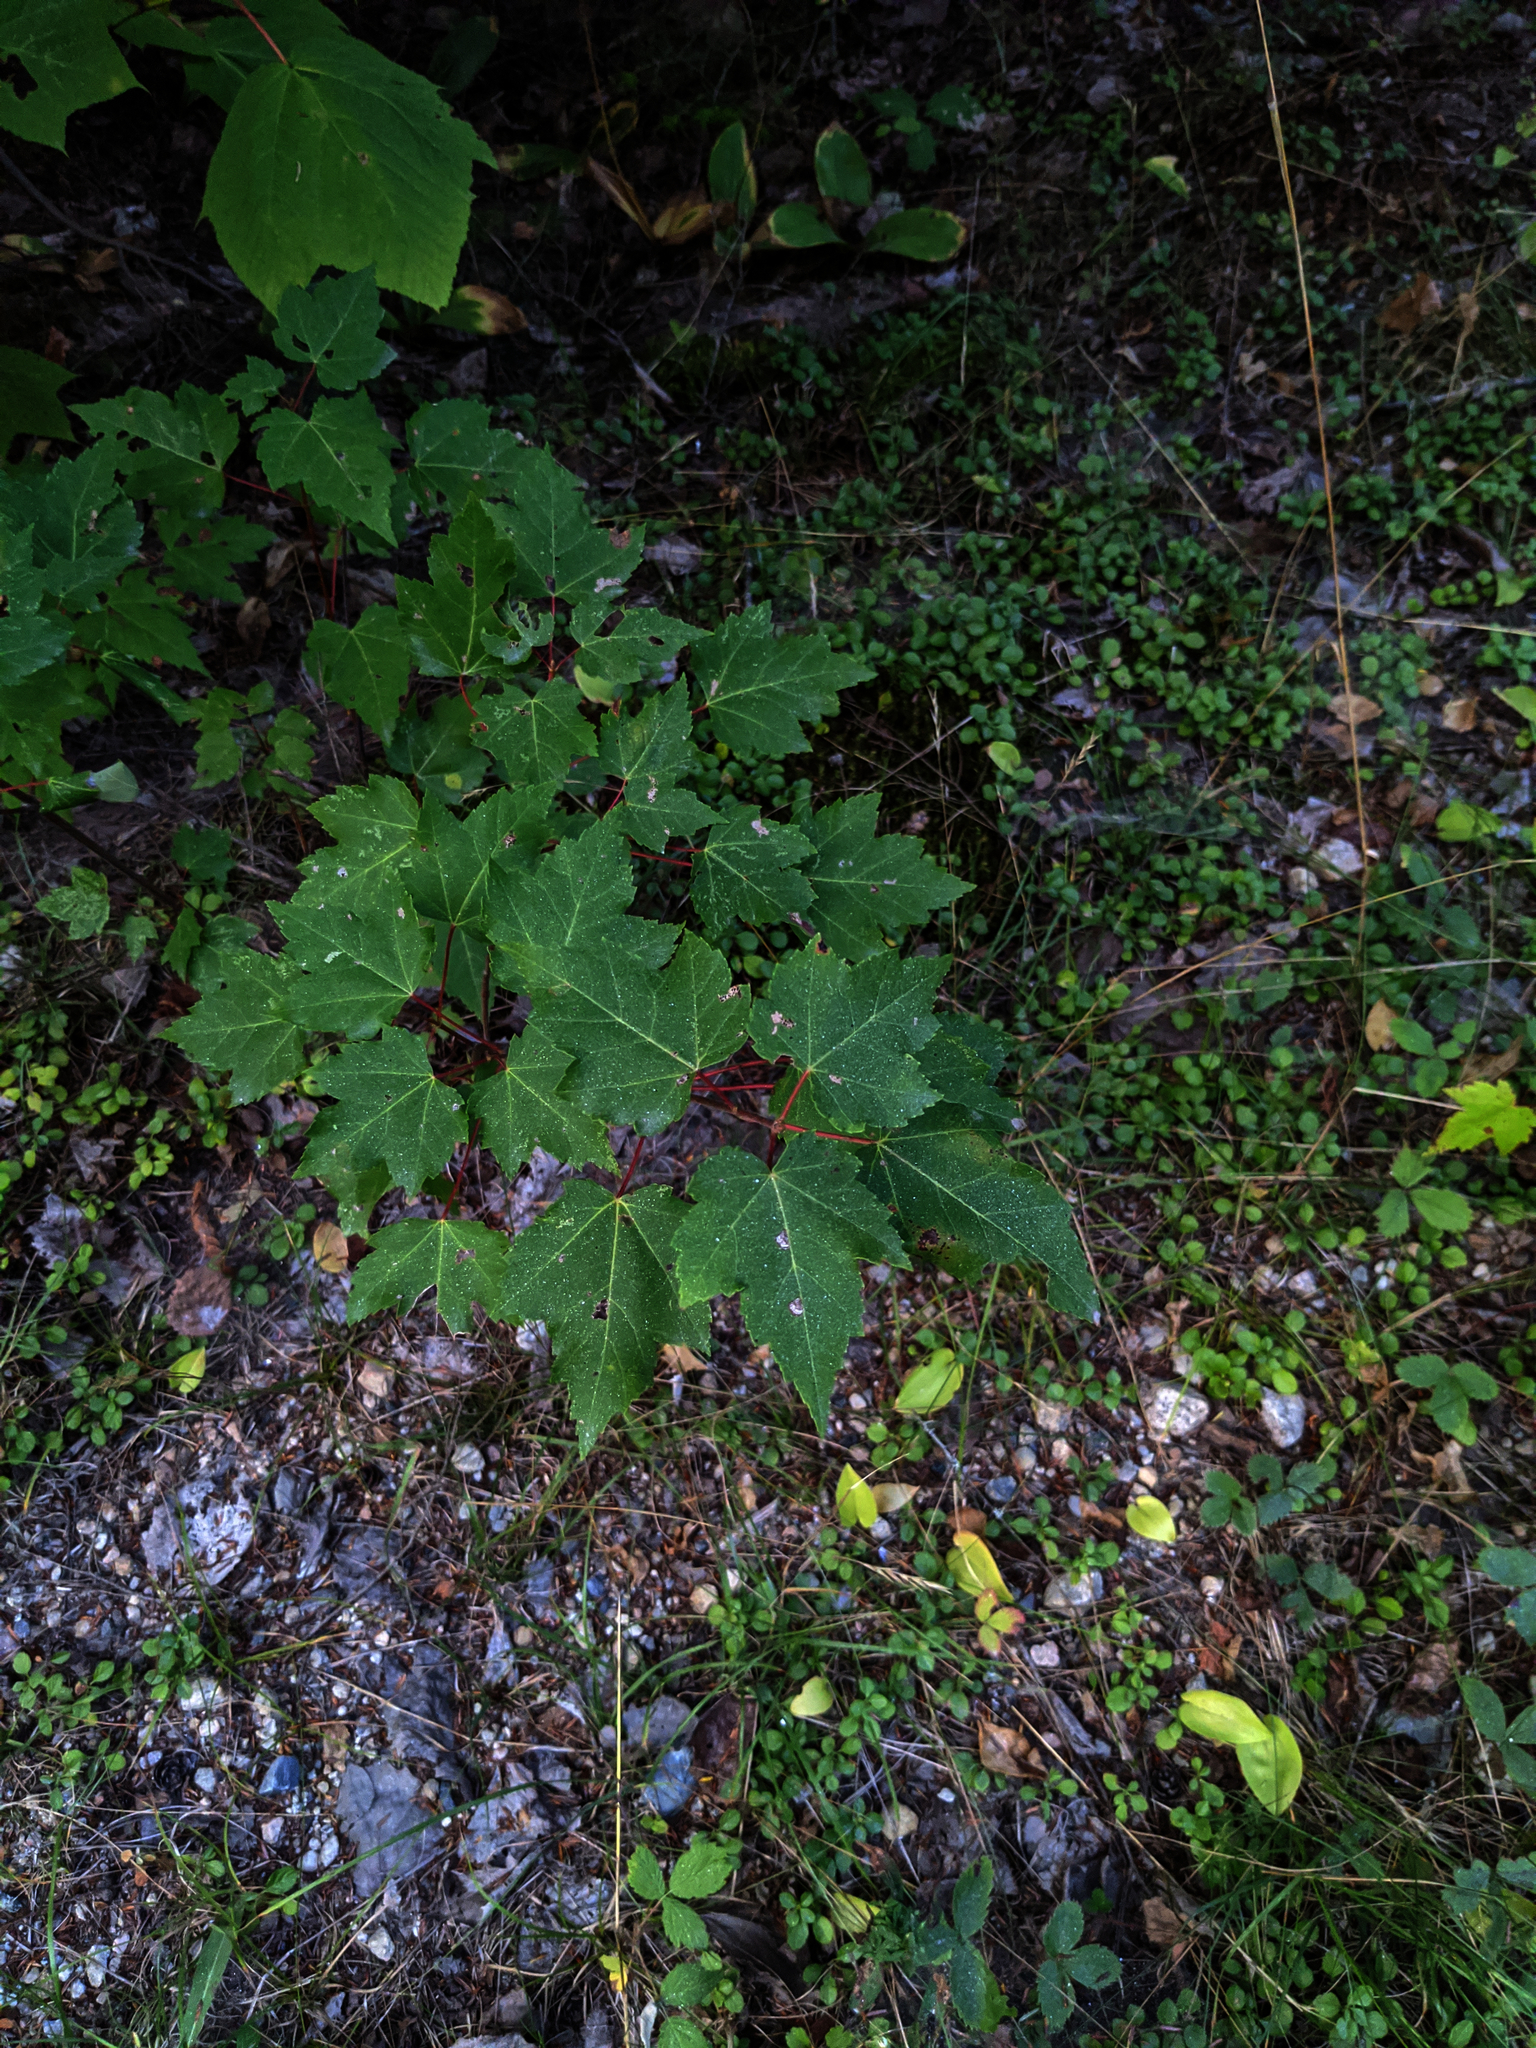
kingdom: Plantae
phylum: Tracheophyta
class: Magnoliopsida
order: Sapindales
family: Sapindaceae
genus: Acer
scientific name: Acer rubrum
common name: Red maple
